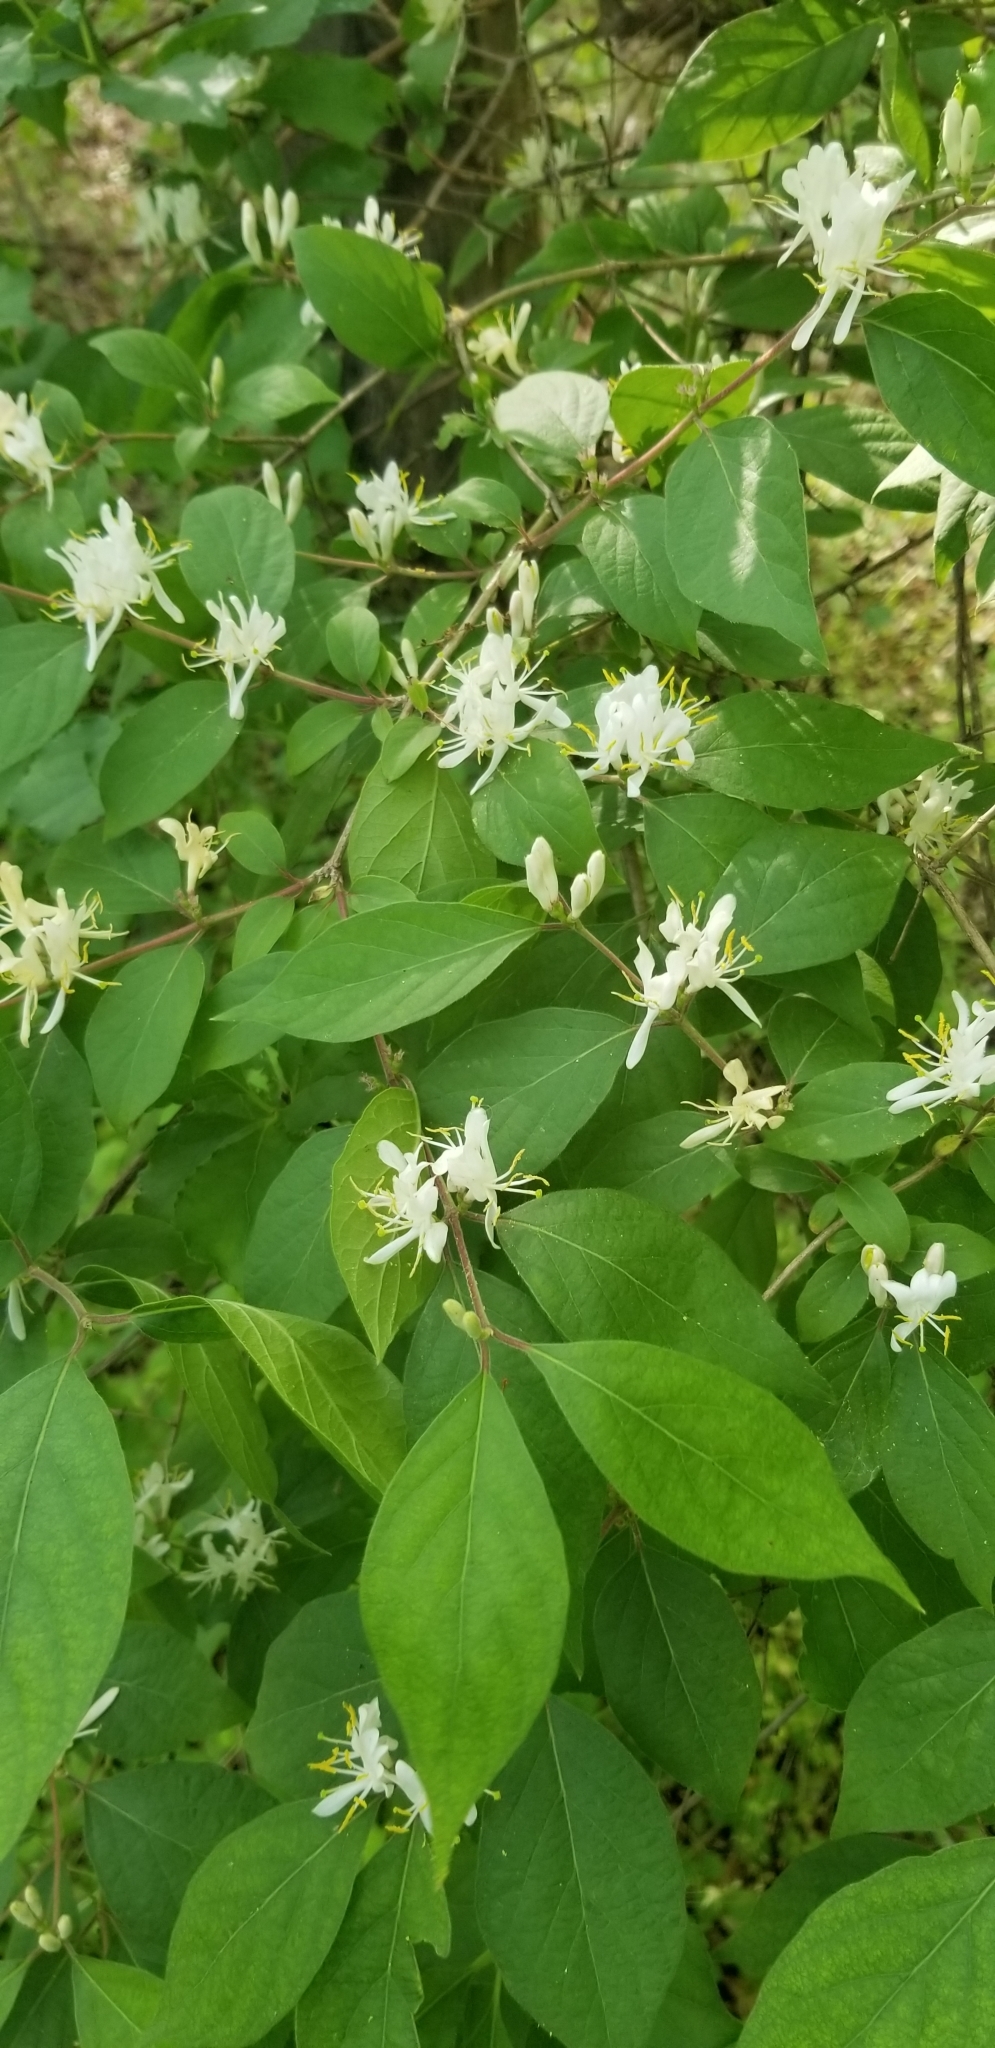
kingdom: Plantae
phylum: Tracheophyta
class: Magnoliopsida
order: Dipsacales
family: Caprifoliaceae
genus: Lonicera
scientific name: Lonicera maackii
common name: Amur honeysuckle
